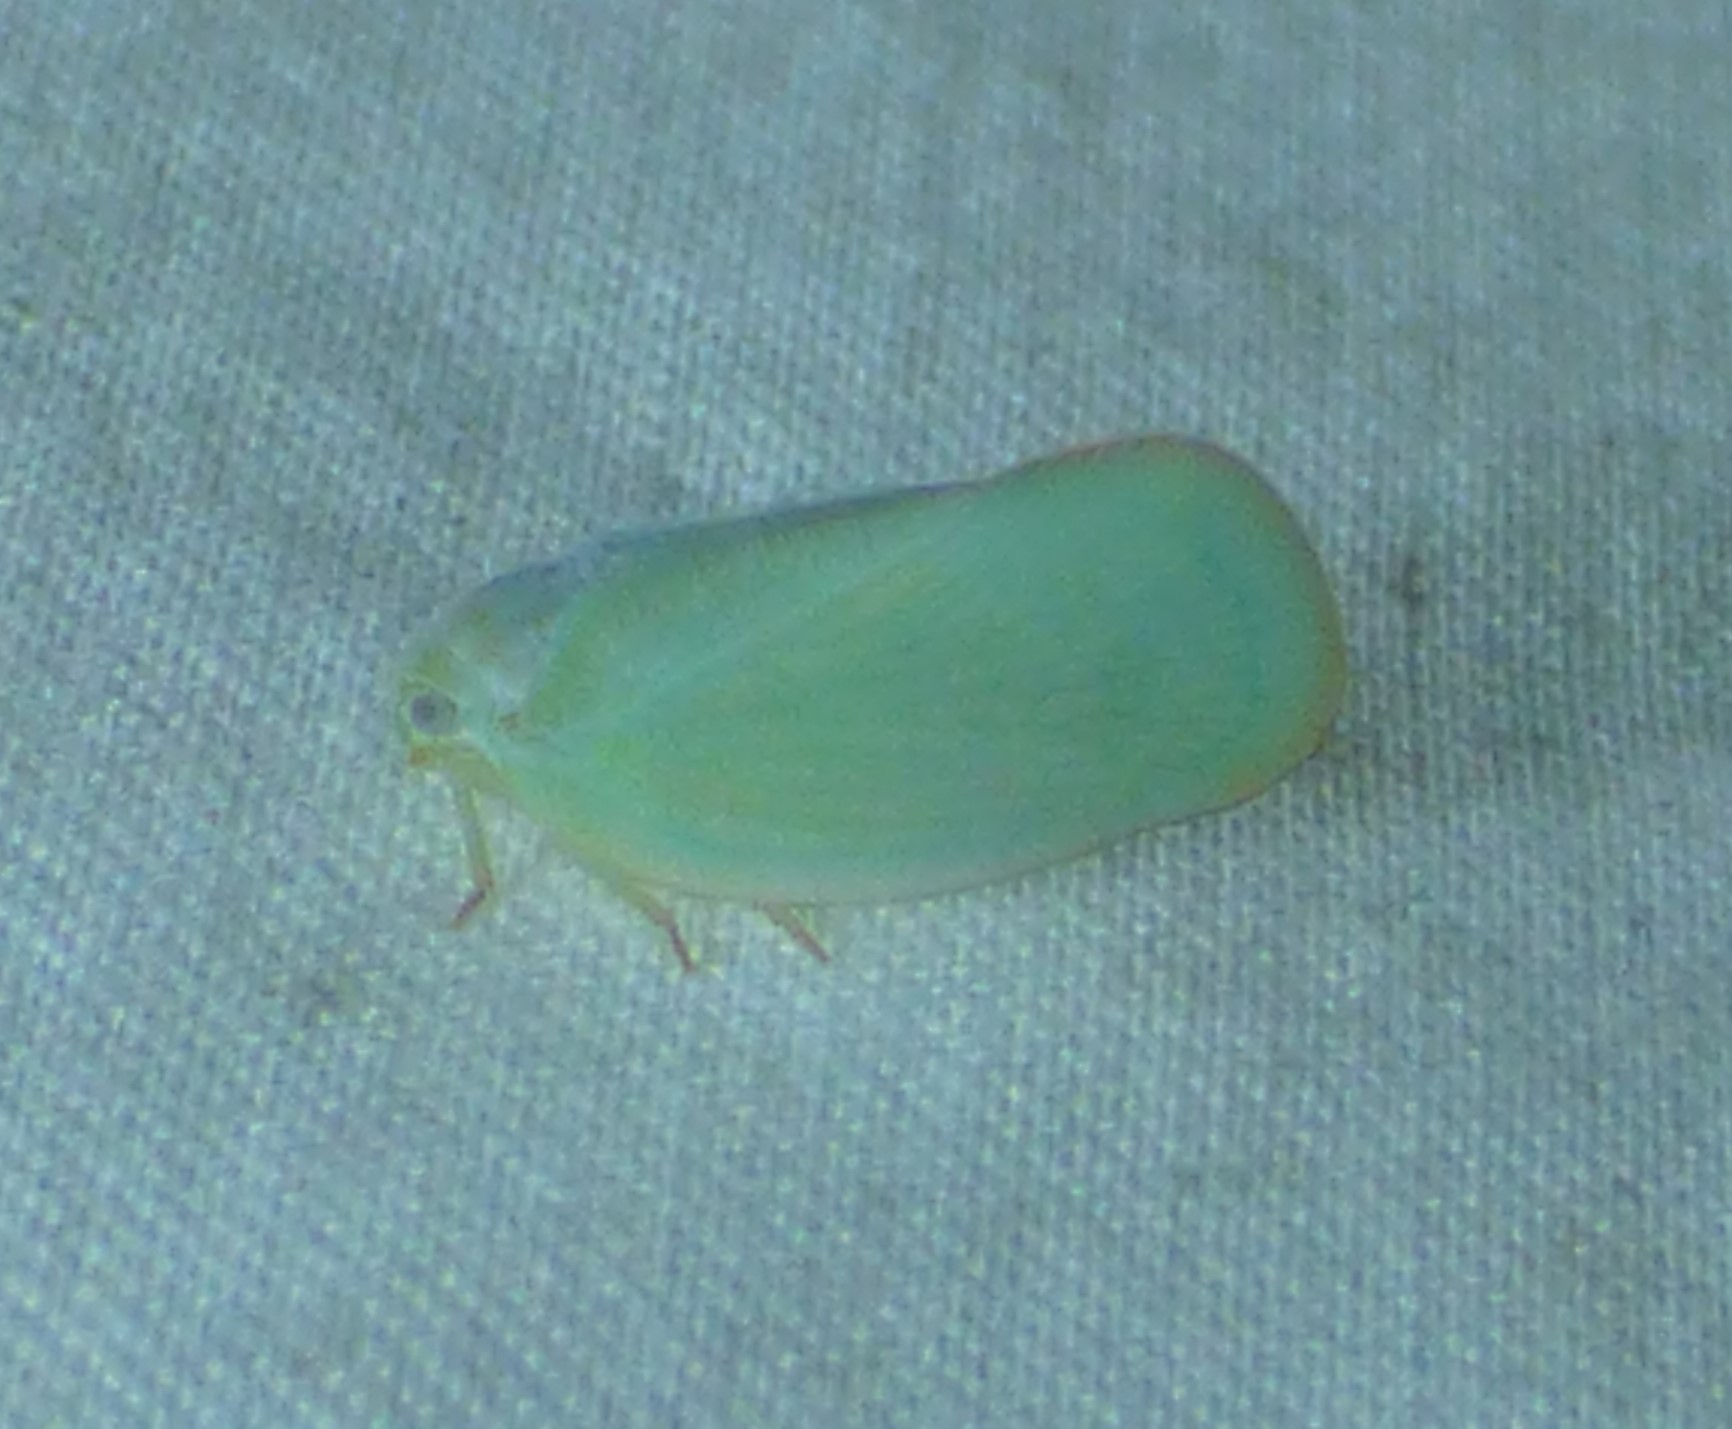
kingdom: Animalia
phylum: Arthropoda
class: Insecta
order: Hemiptera
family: Flatidae
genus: Ormenoides
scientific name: Ormenoides venusta
